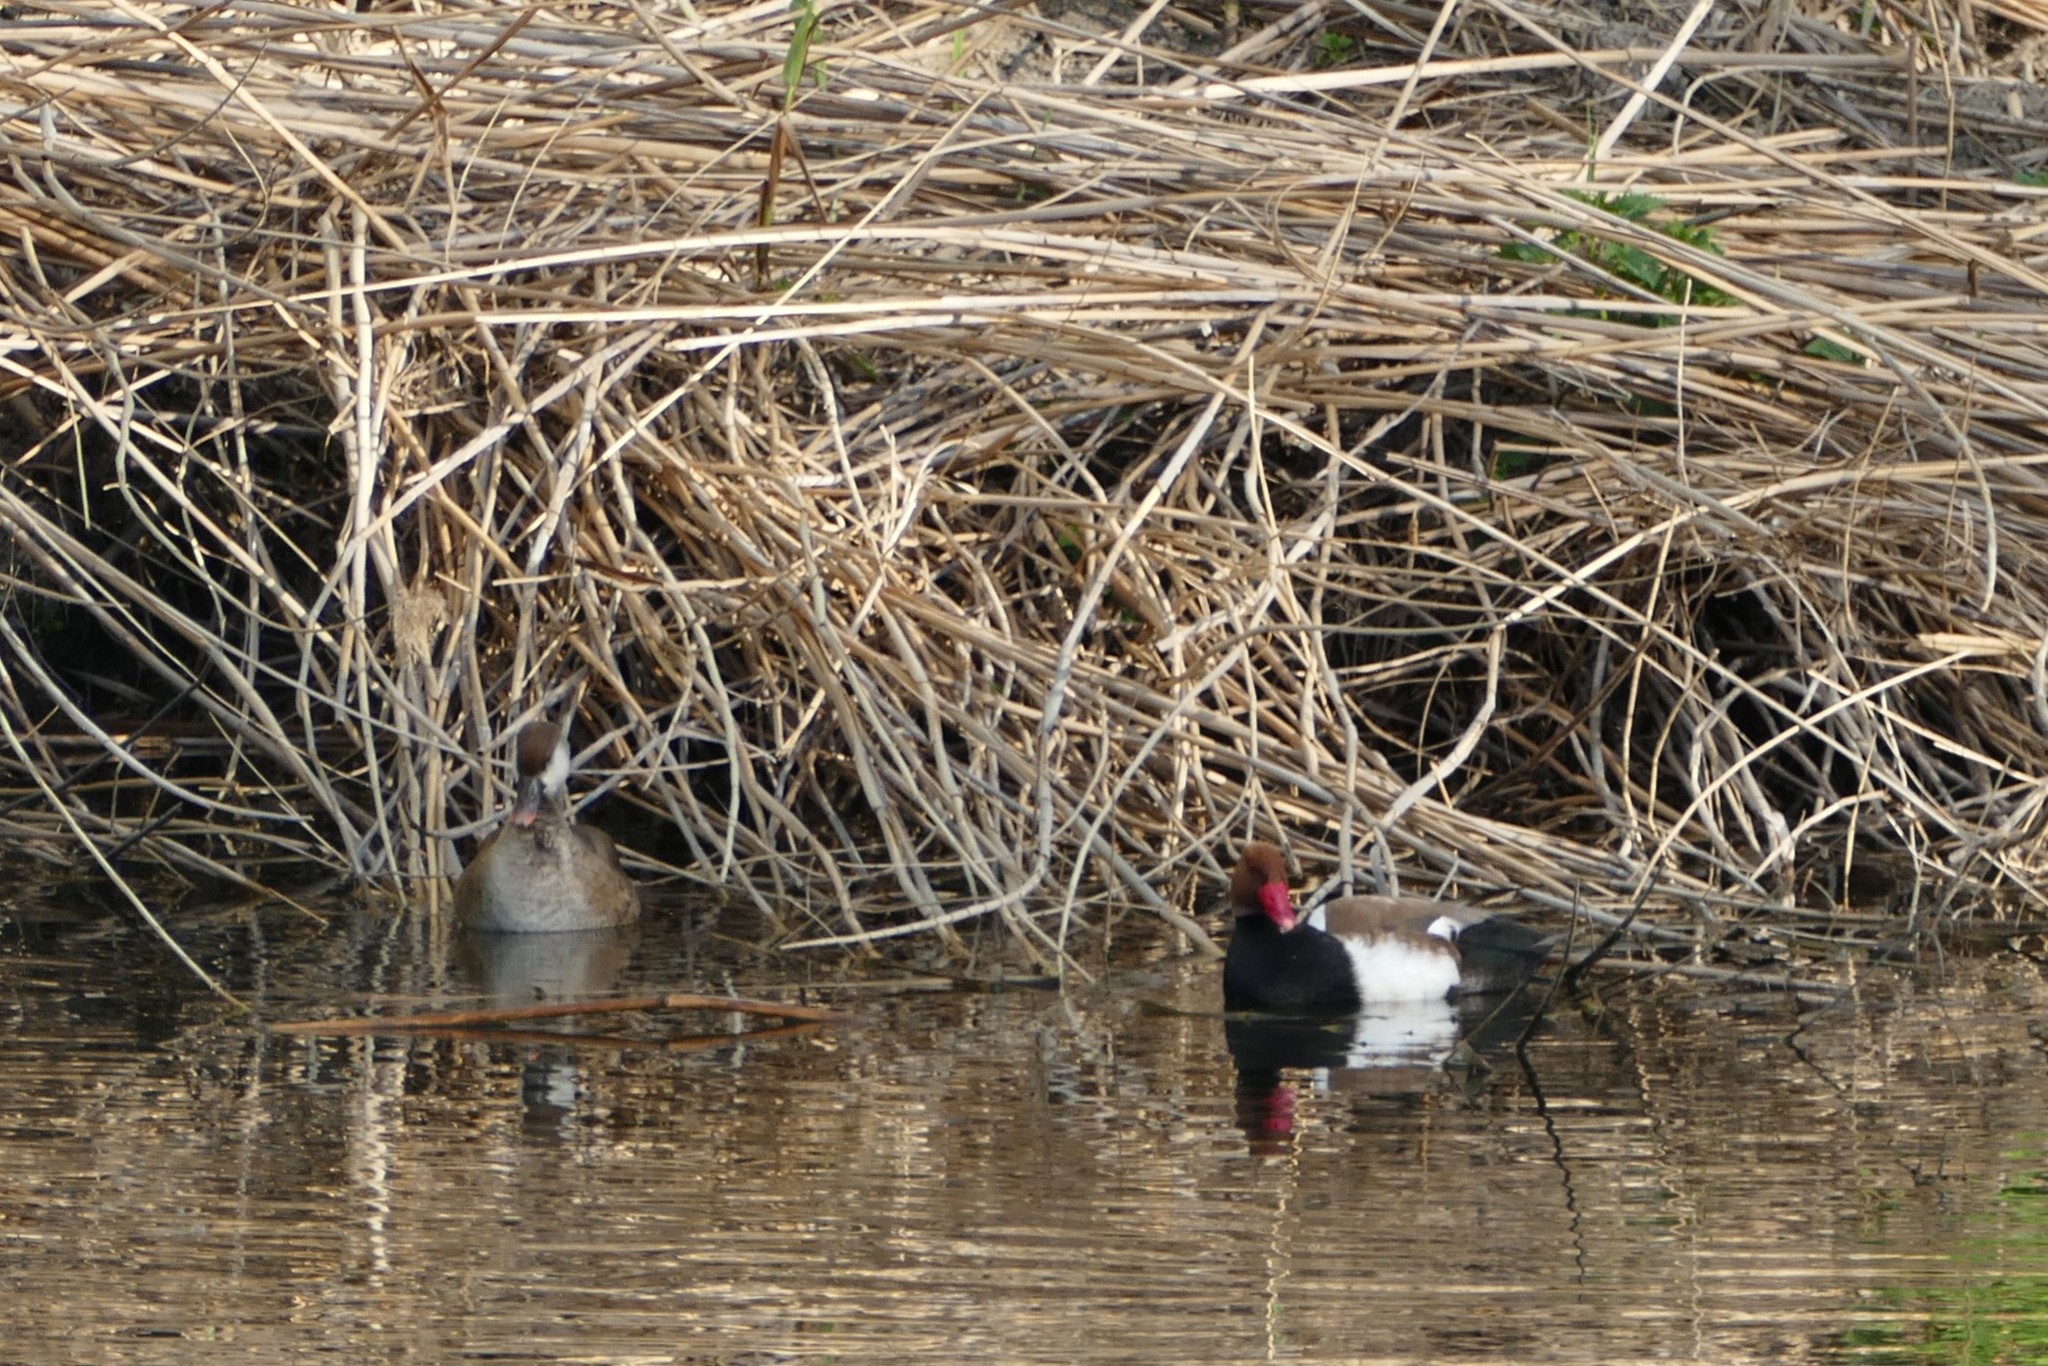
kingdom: Animalia
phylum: Chordata
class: Aves
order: Anseriformes
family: Anatidae
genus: Netta
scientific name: Netta rufina
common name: Red-crested pochard
